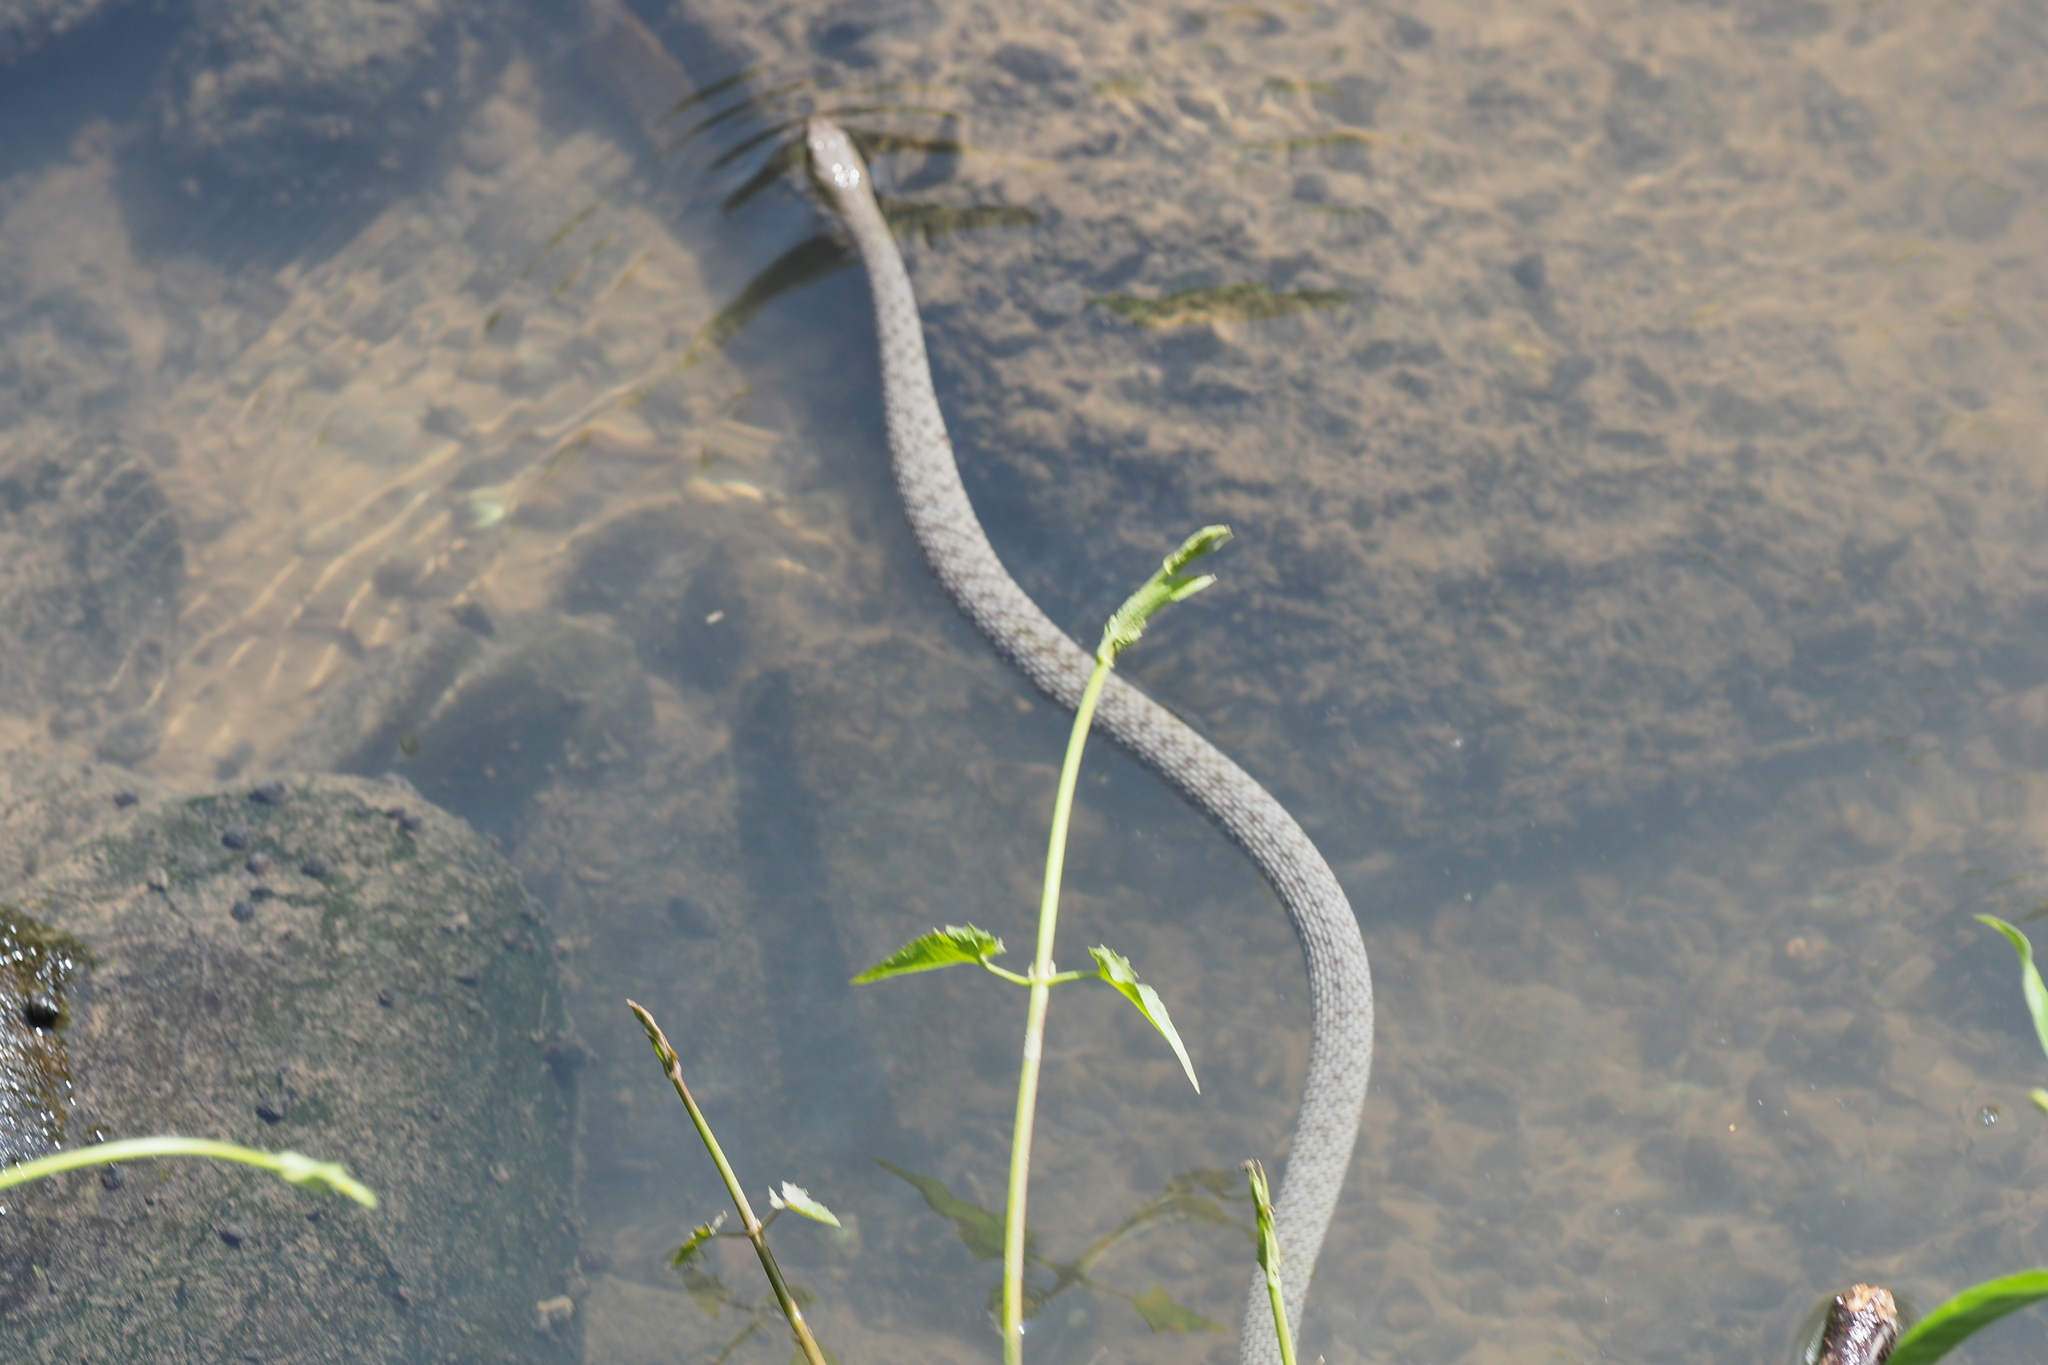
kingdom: Animalia
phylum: Chordata
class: Squamata
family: Colubridae
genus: Trimerodytes
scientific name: Trimerodytes percarinatus
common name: Eastern water snake
